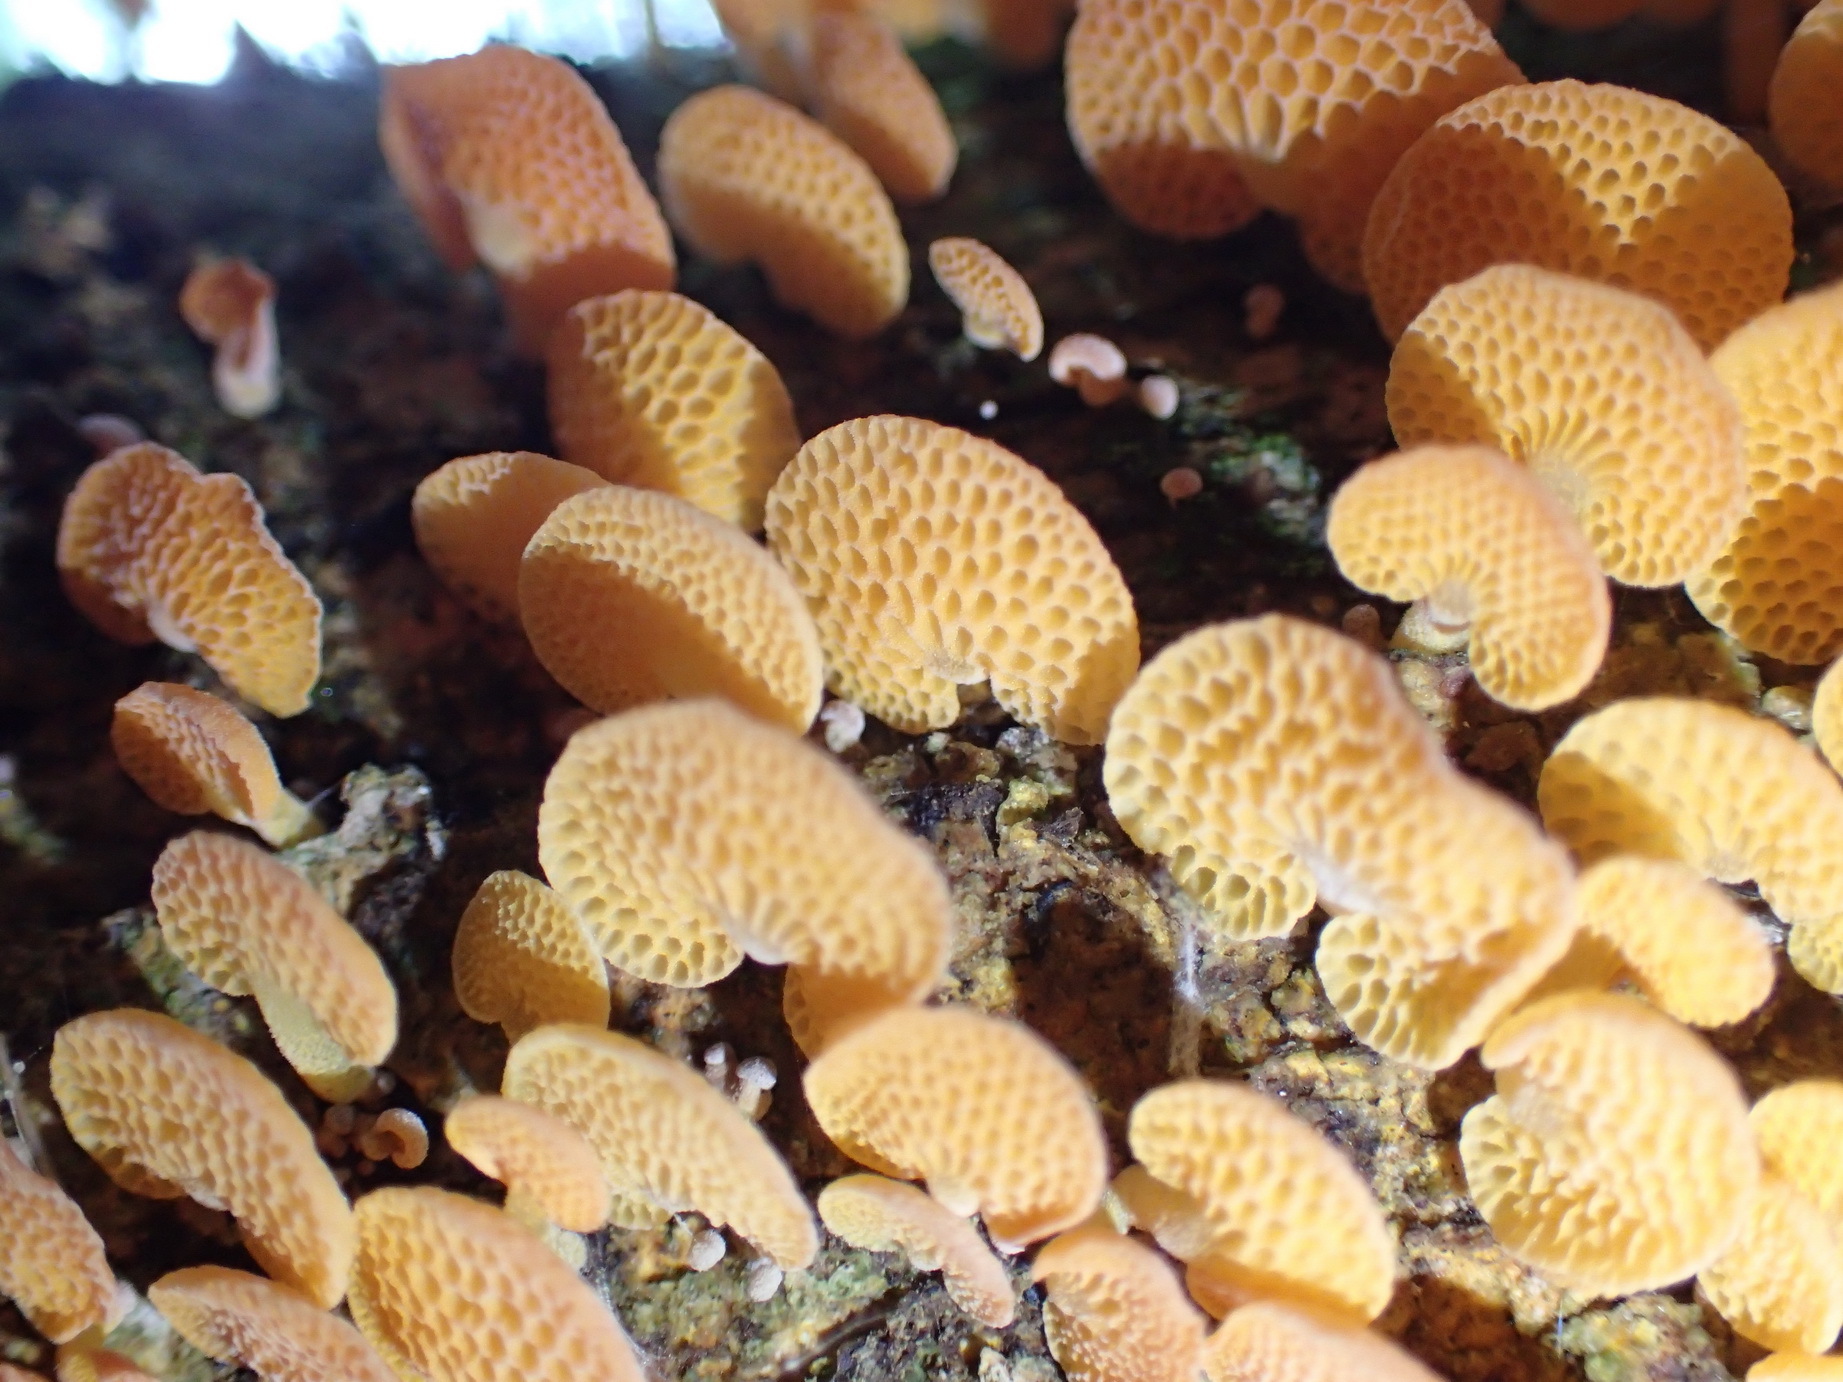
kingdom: Fungi
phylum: Basidiomycota
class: Agaricomycetes
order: Agaricales
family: Mycenaceae
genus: Favolaschia
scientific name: Favolaschia claudopus
